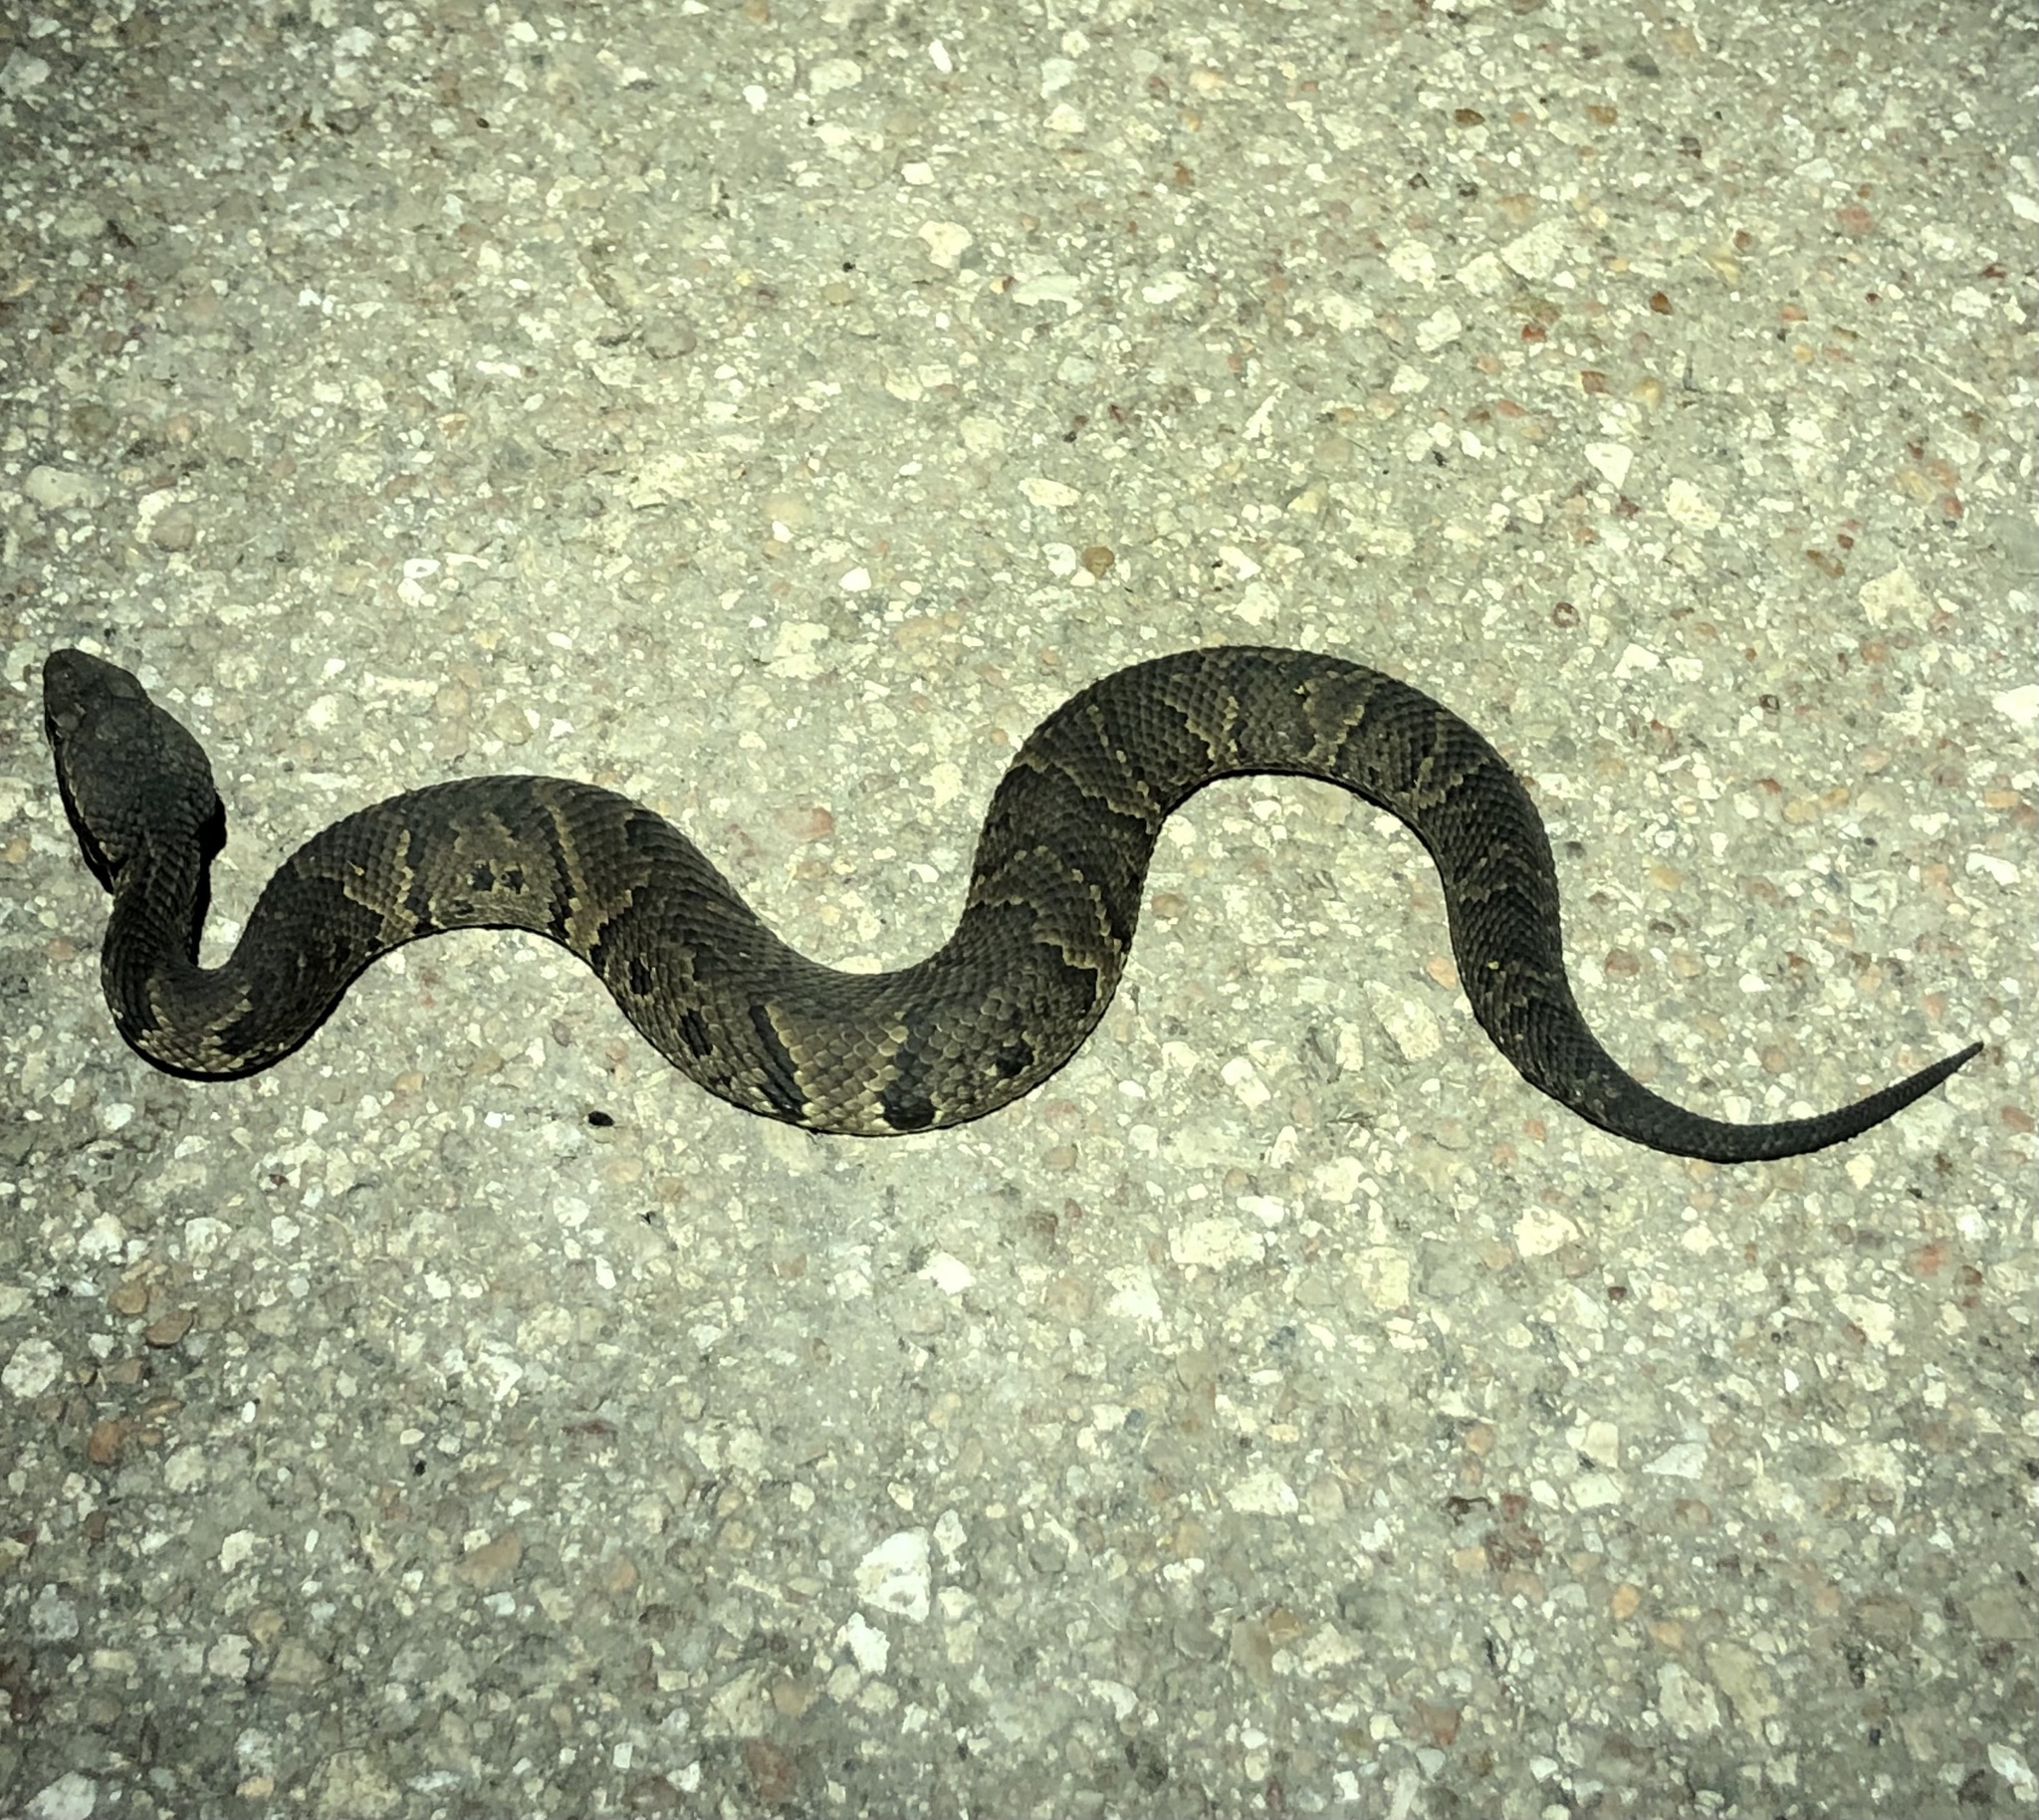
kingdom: Animalia
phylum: Chordata
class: Squamata
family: Viperidae
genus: Agkistrodon
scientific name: Agkistrodon piscivorus
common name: Cottonmouth
